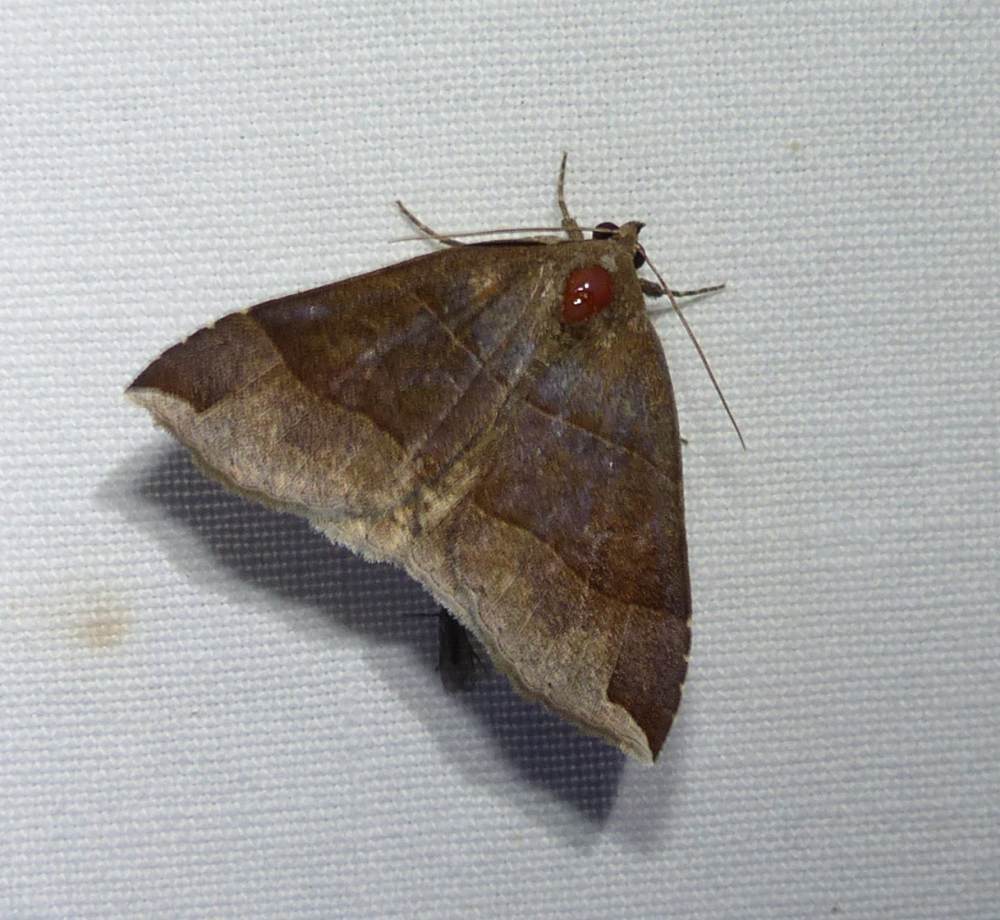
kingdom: Animalia
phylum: Arthropoda
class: Insecta
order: Lepidoptera
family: Erebidae
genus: Parallelia
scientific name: Parallelia bistriaris
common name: Maple looper moth
